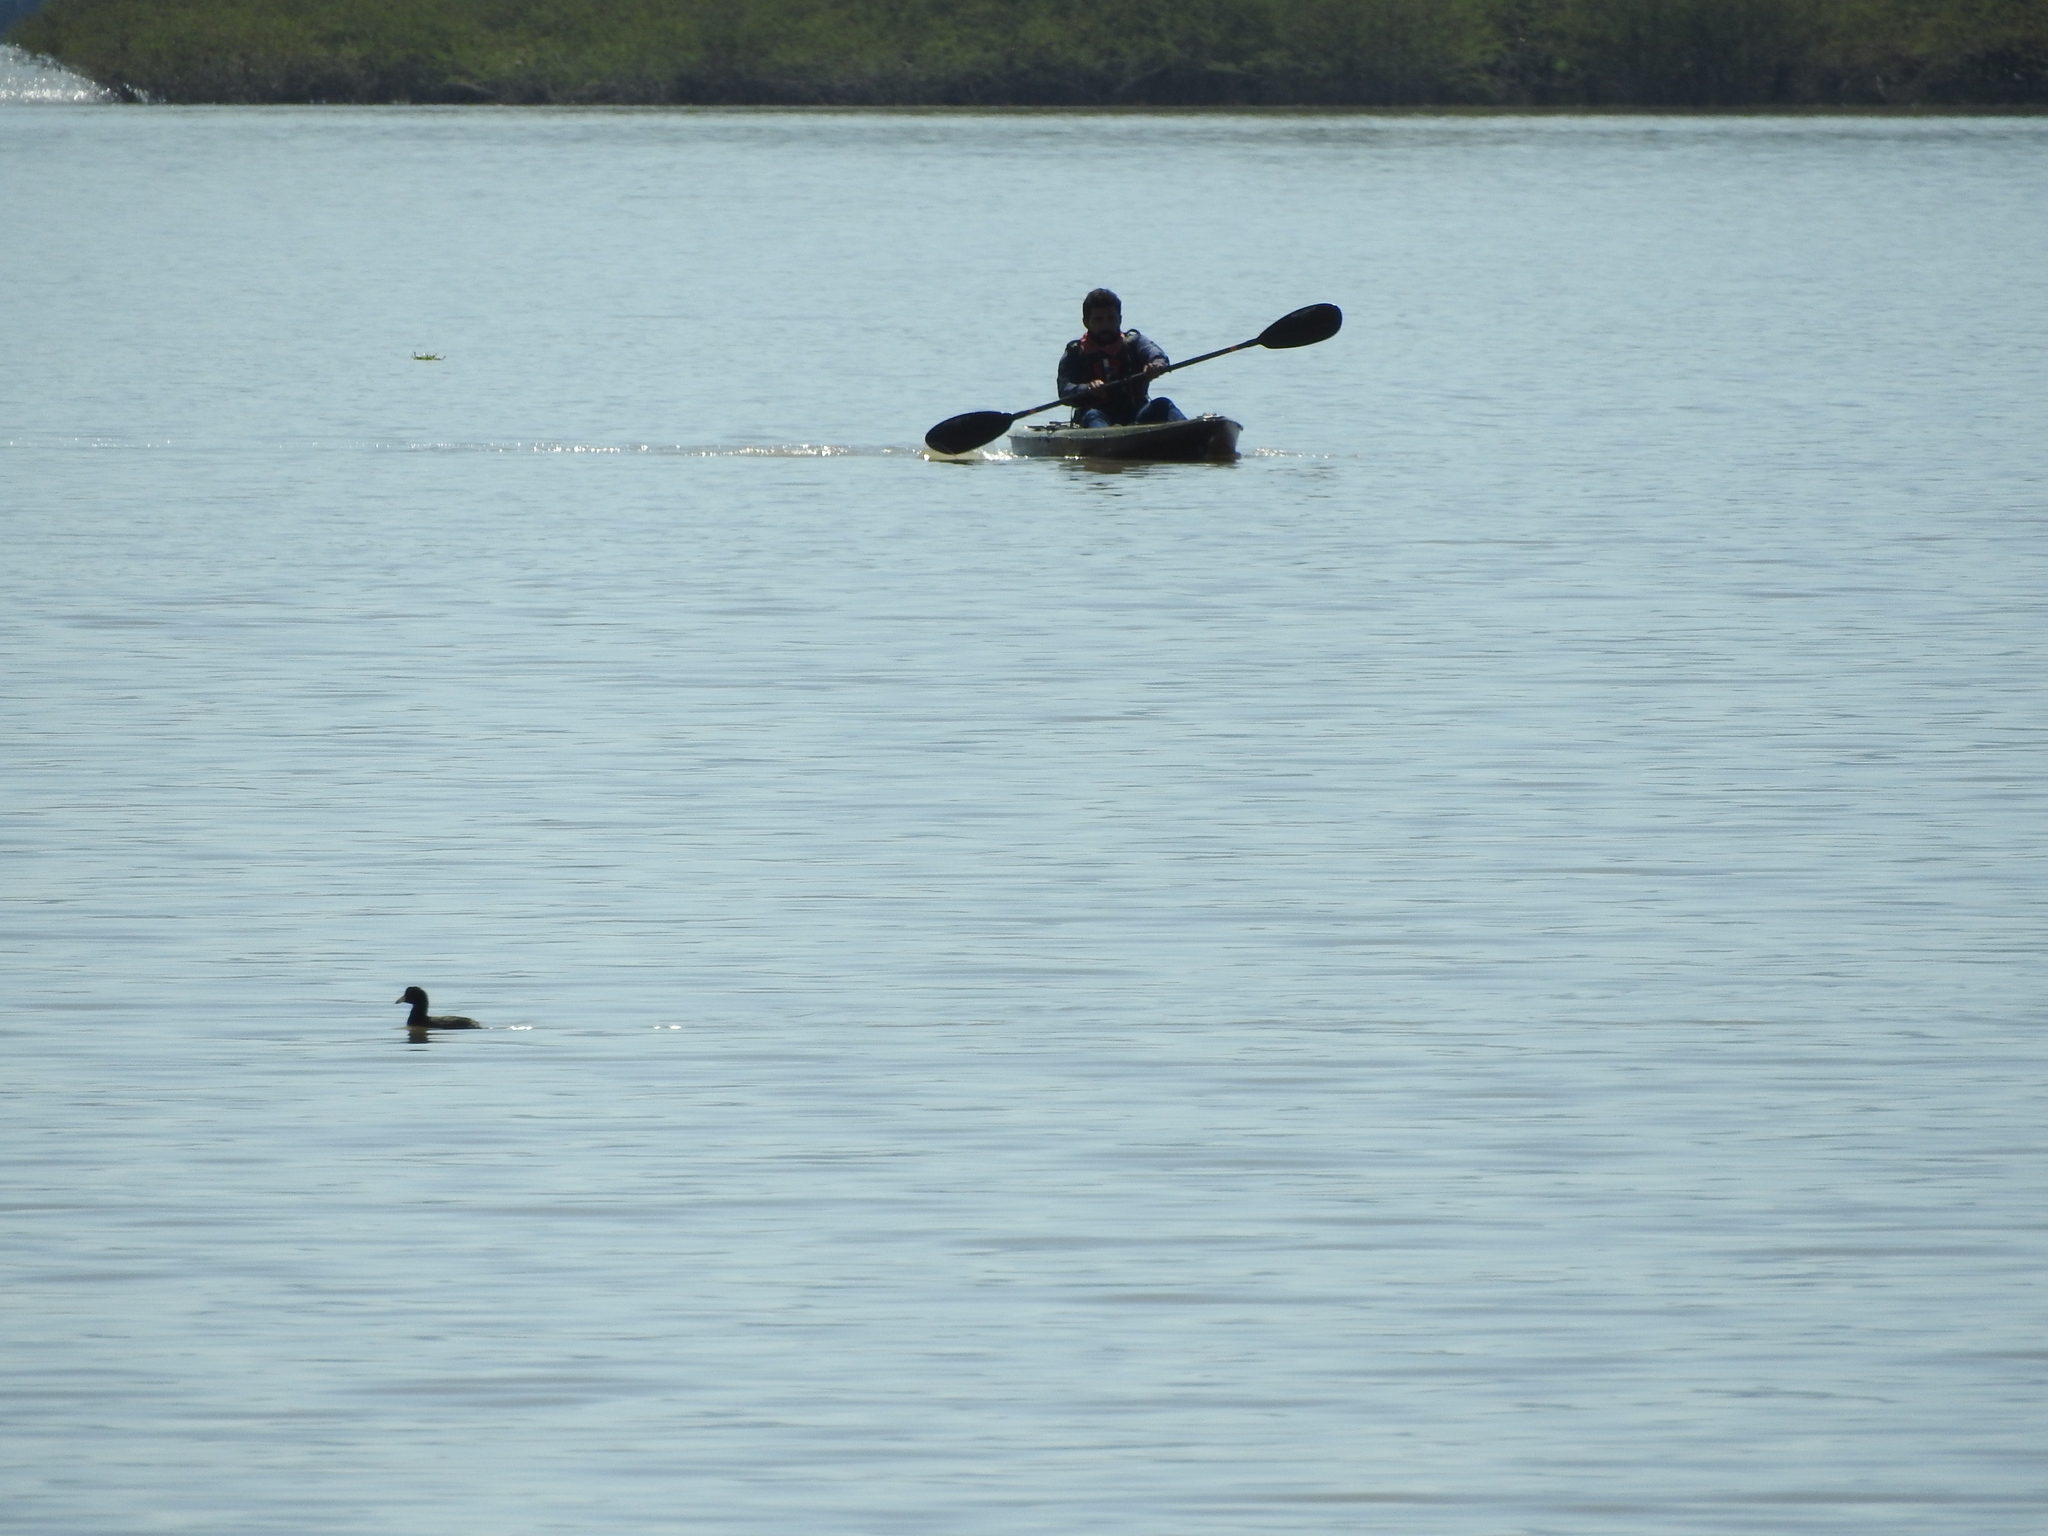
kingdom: Animalia
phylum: Chordata
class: Aves
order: Gruiformes
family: Rallidae
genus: Fulica
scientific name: Fulica americana
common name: American coot
